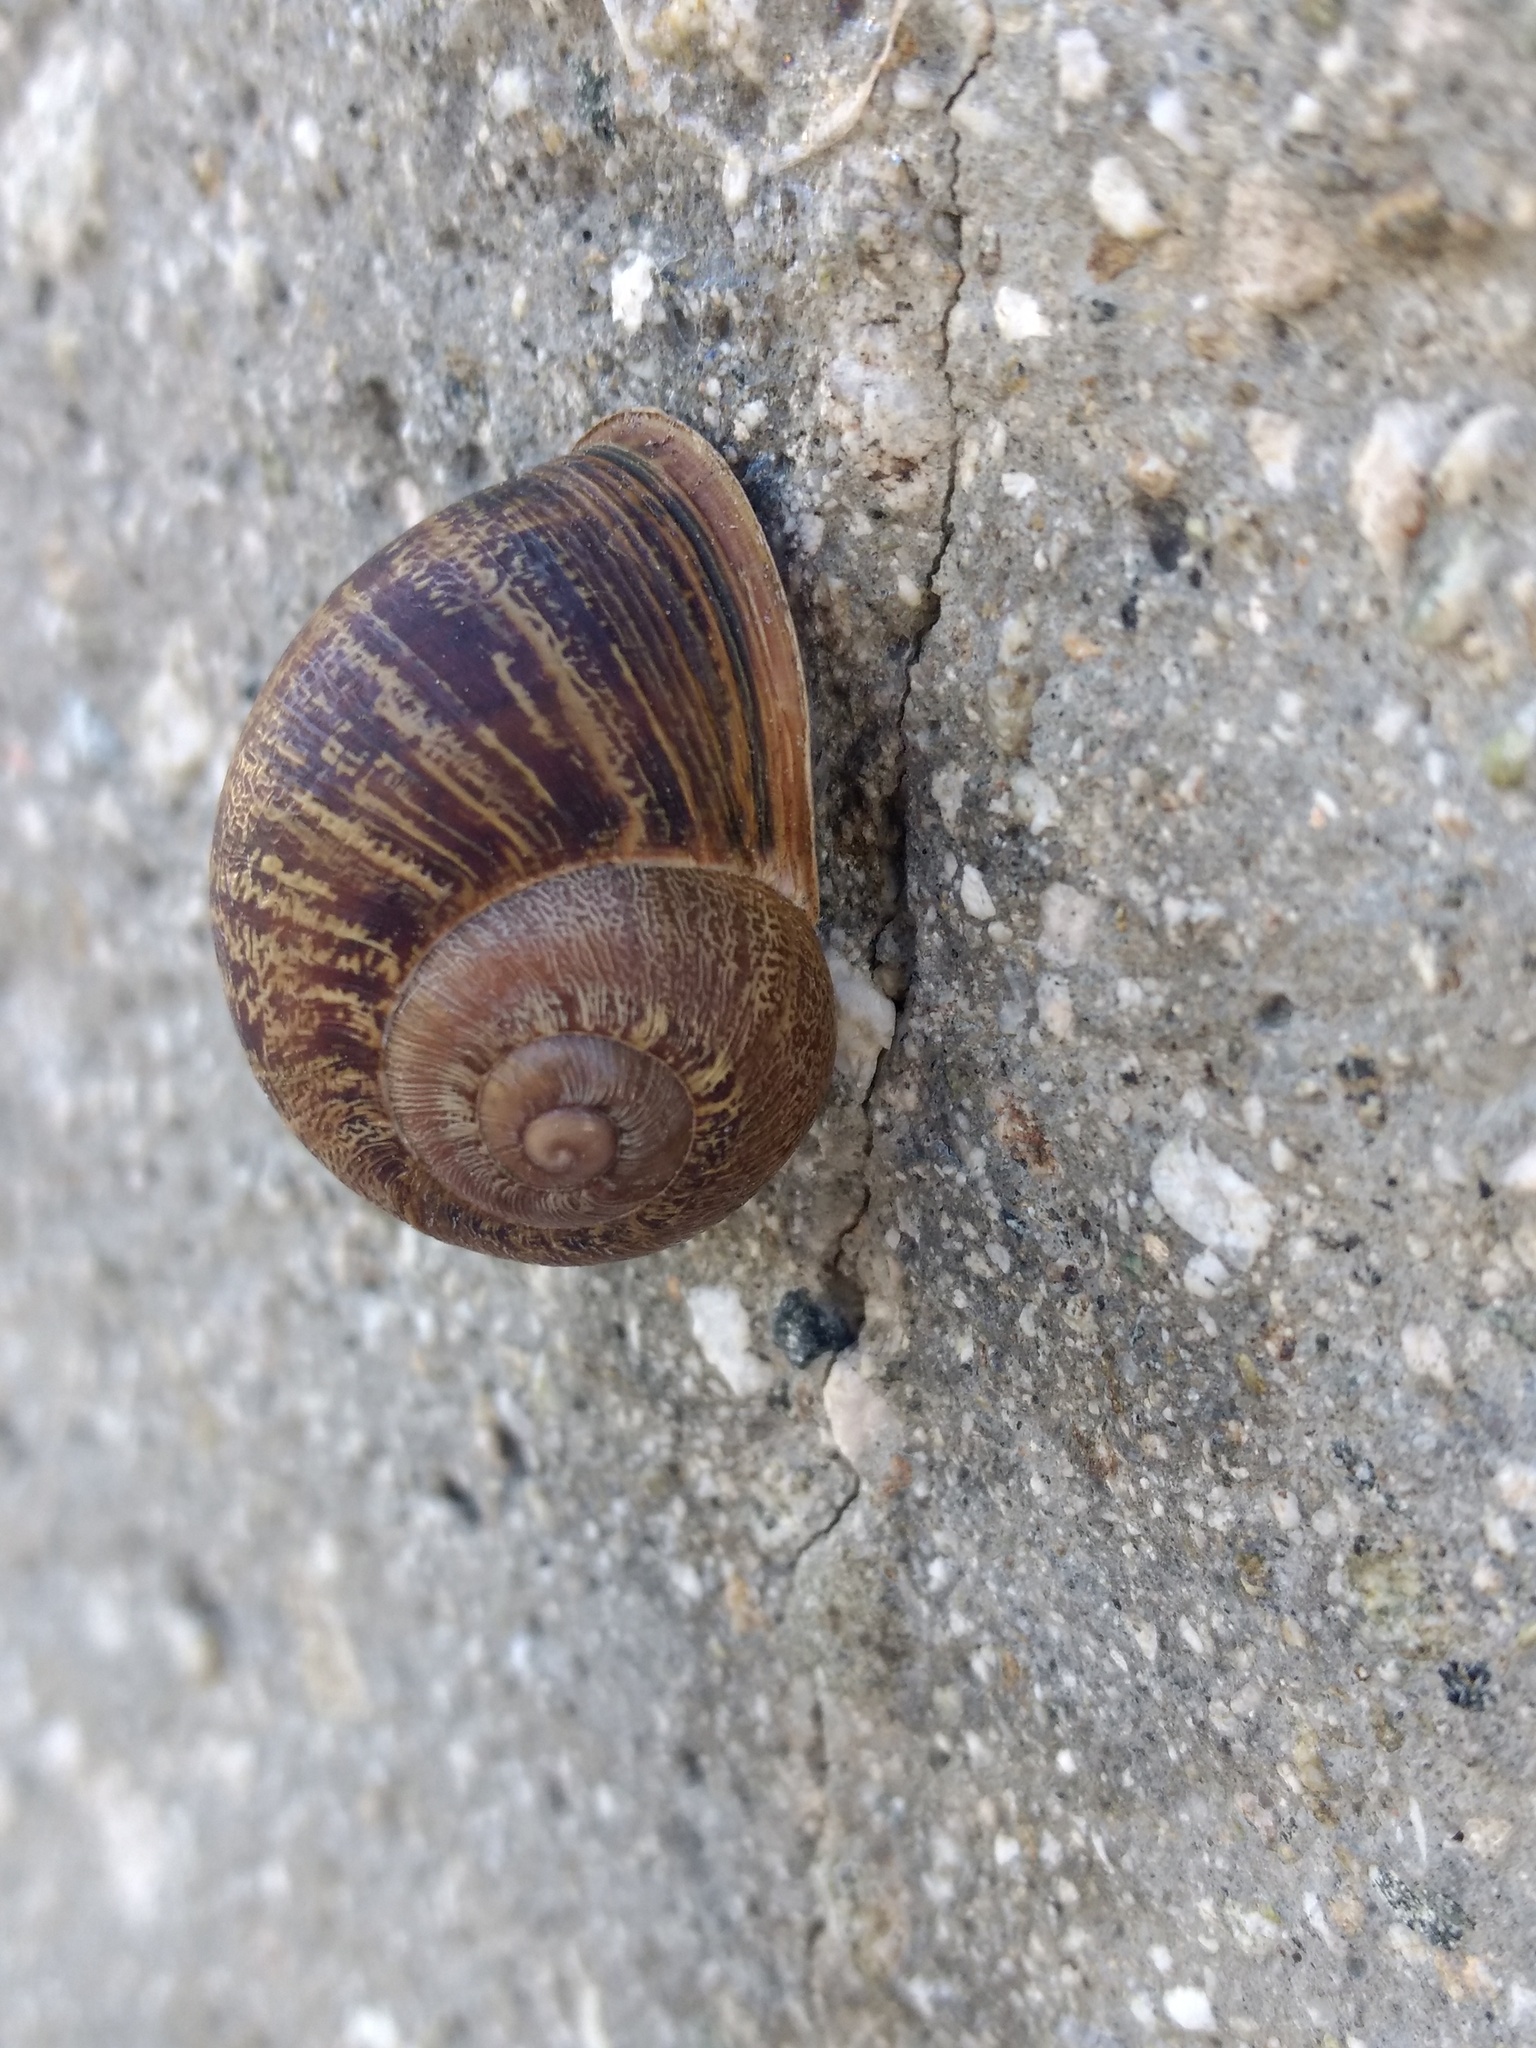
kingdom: Animalia
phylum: Mollusca
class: Gastropoda
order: Stylommatophora
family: Helicidae
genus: Cornu
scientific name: Cornu aspersum
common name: Brown garden snail
